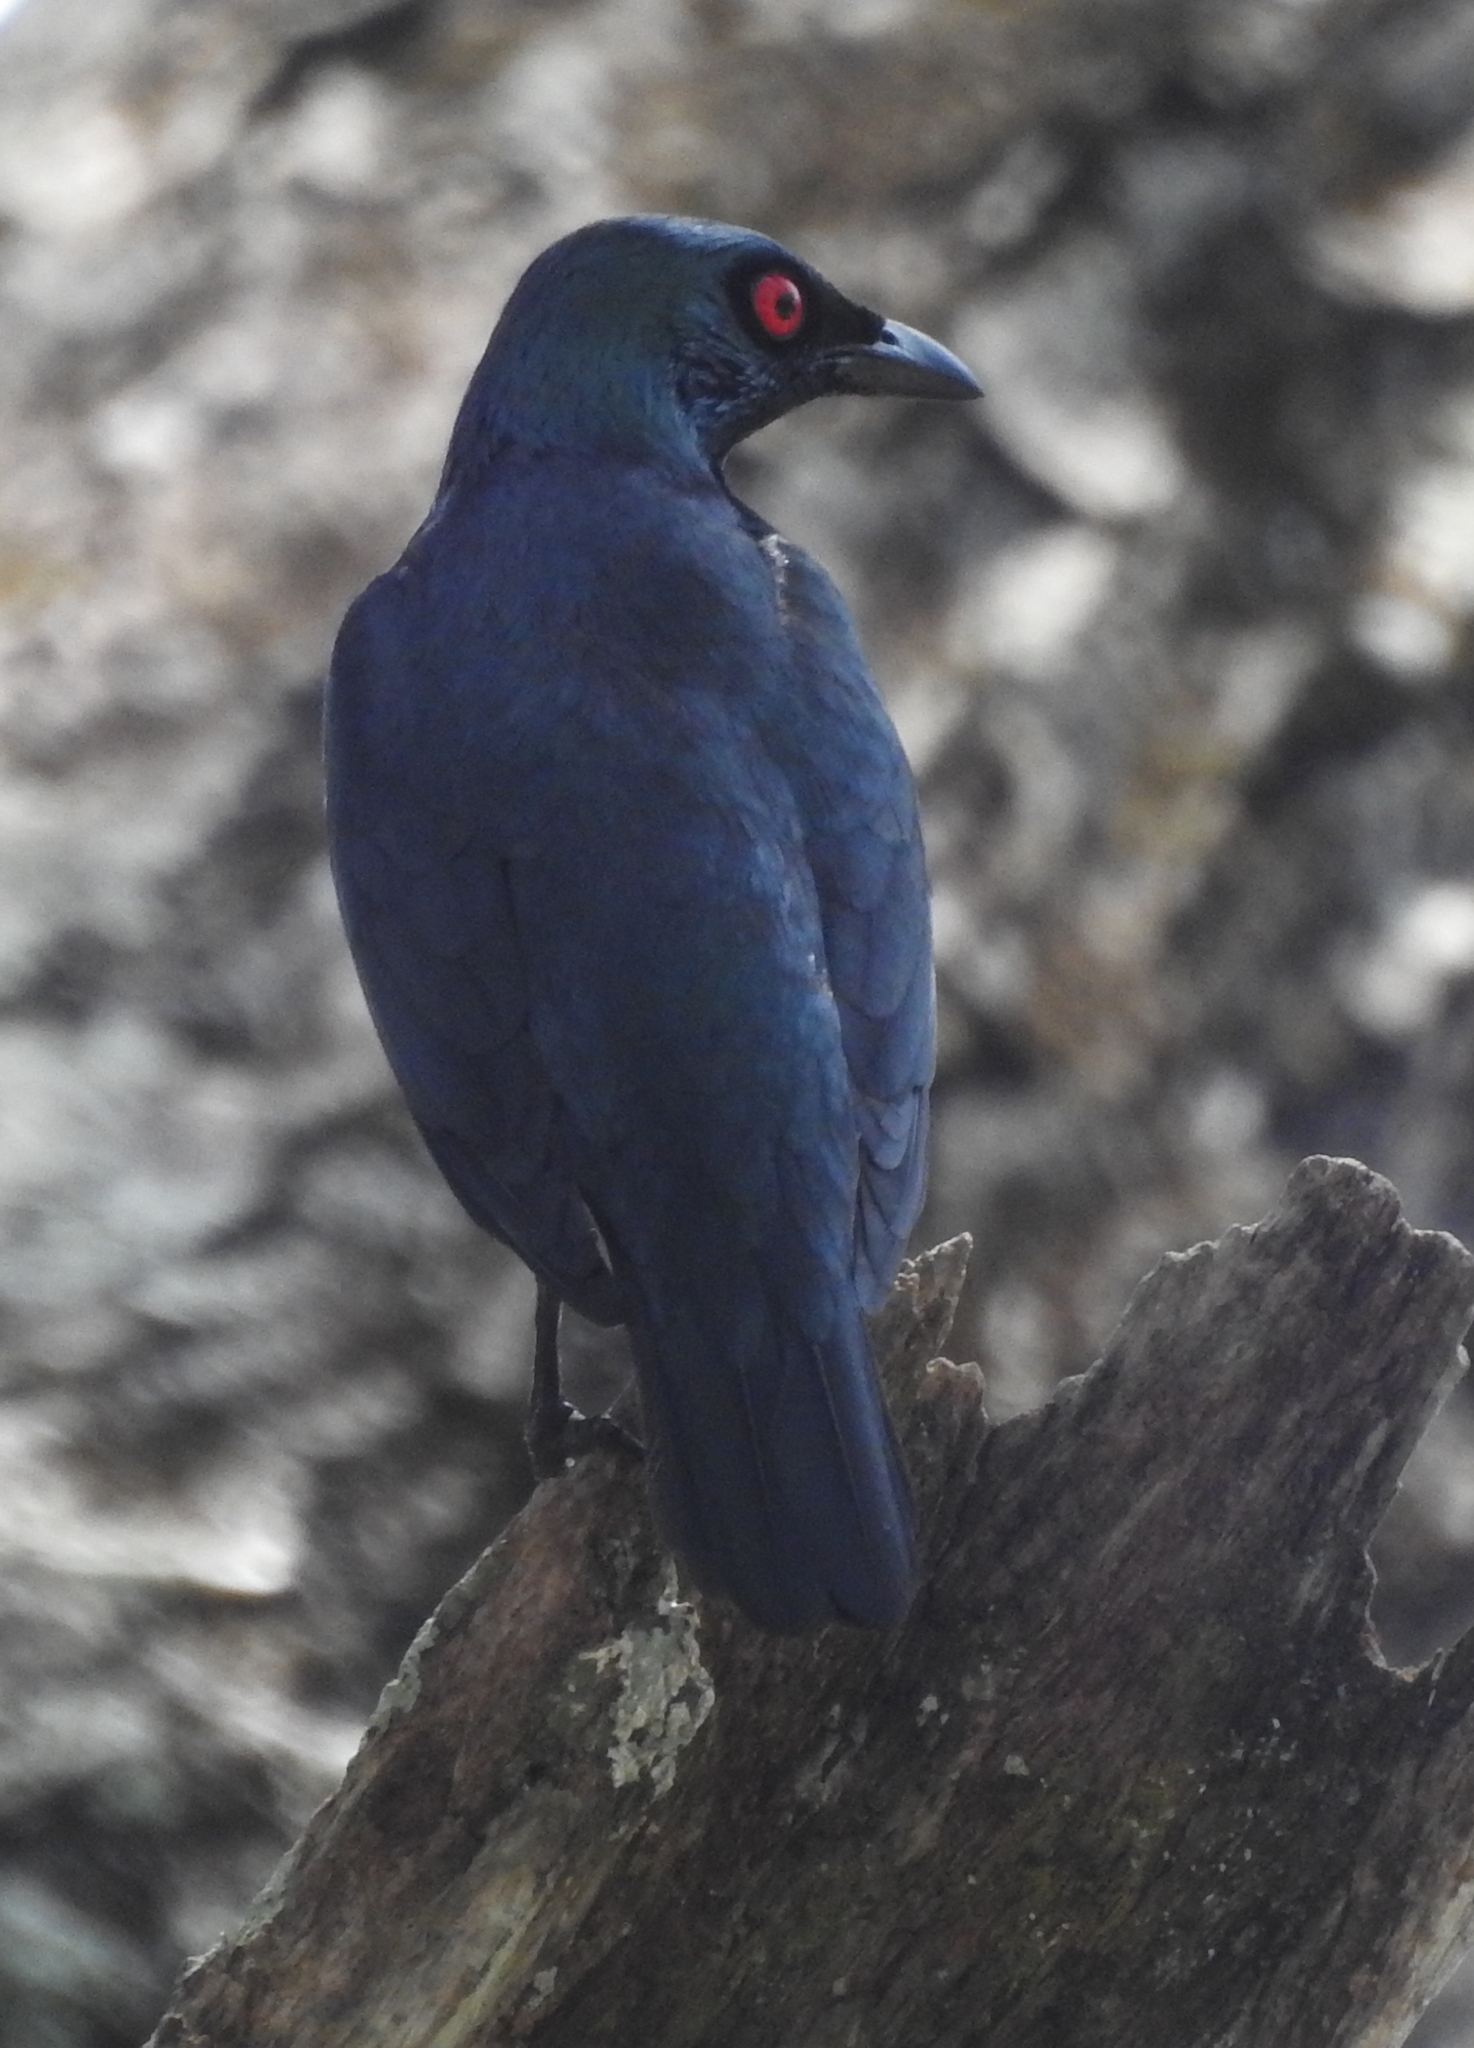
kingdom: Animalia
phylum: Chordata
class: Aves
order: Passeriformes
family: Sturnidae
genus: Aplonis
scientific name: Aplonis panayensis
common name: Asian glossy starling
